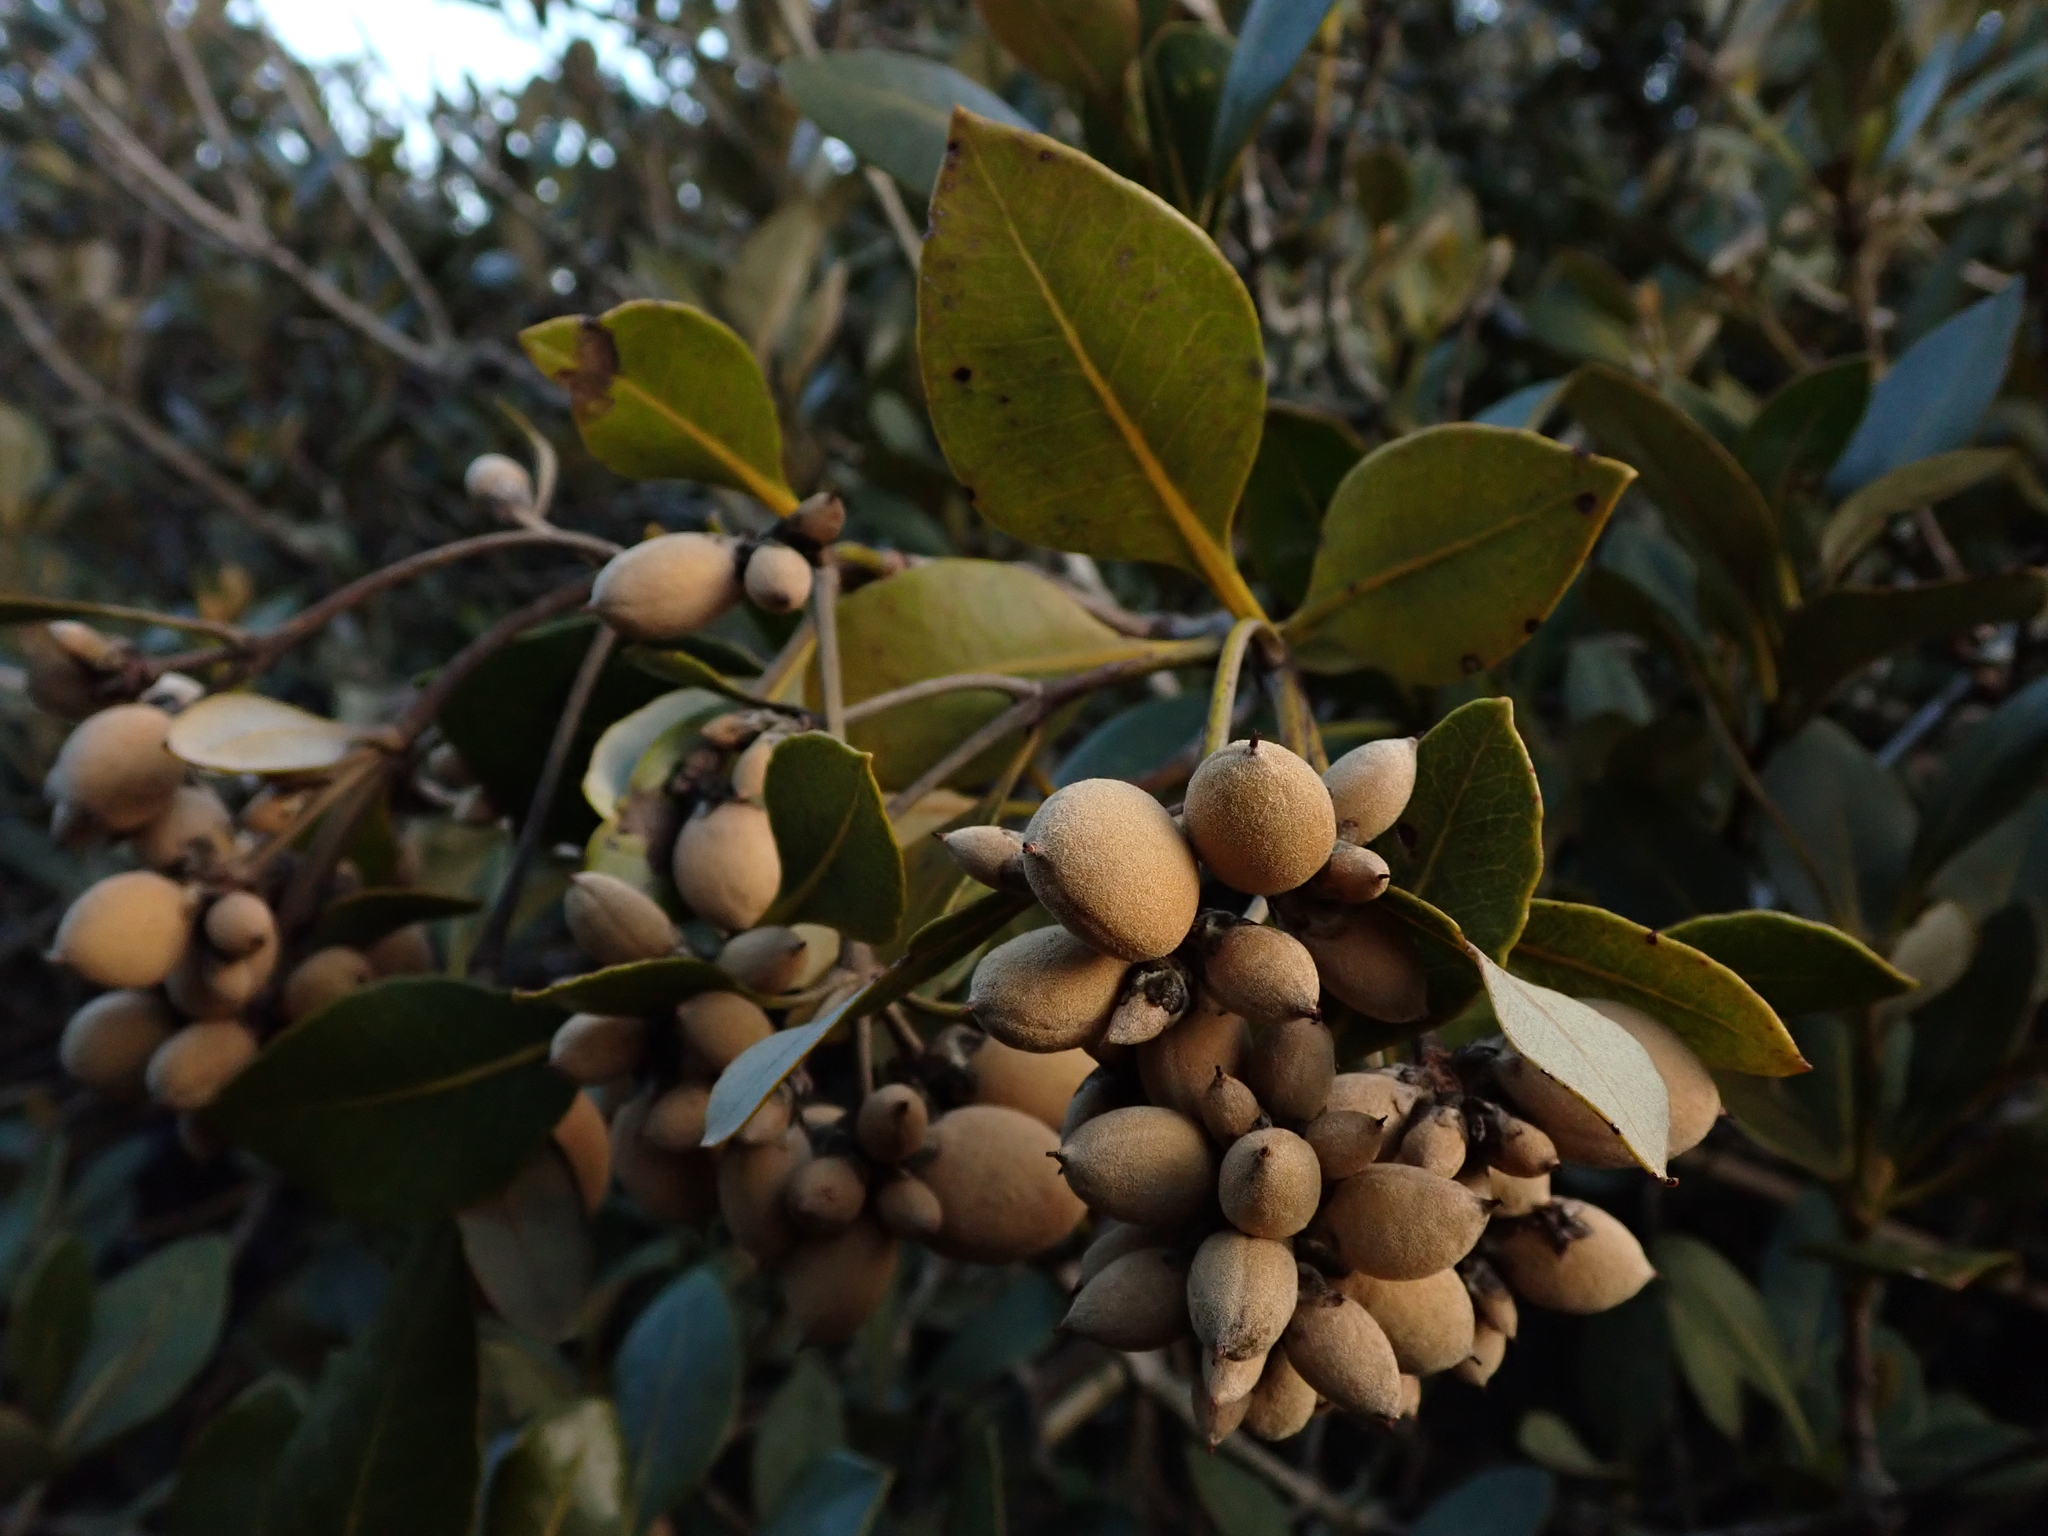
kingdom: Plantae
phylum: Tracheophyta
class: Magnoliopsida
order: Lamiales
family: Acanthaceae
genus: Avicennia
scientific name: Avicennia marina
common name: Gray mangrove
